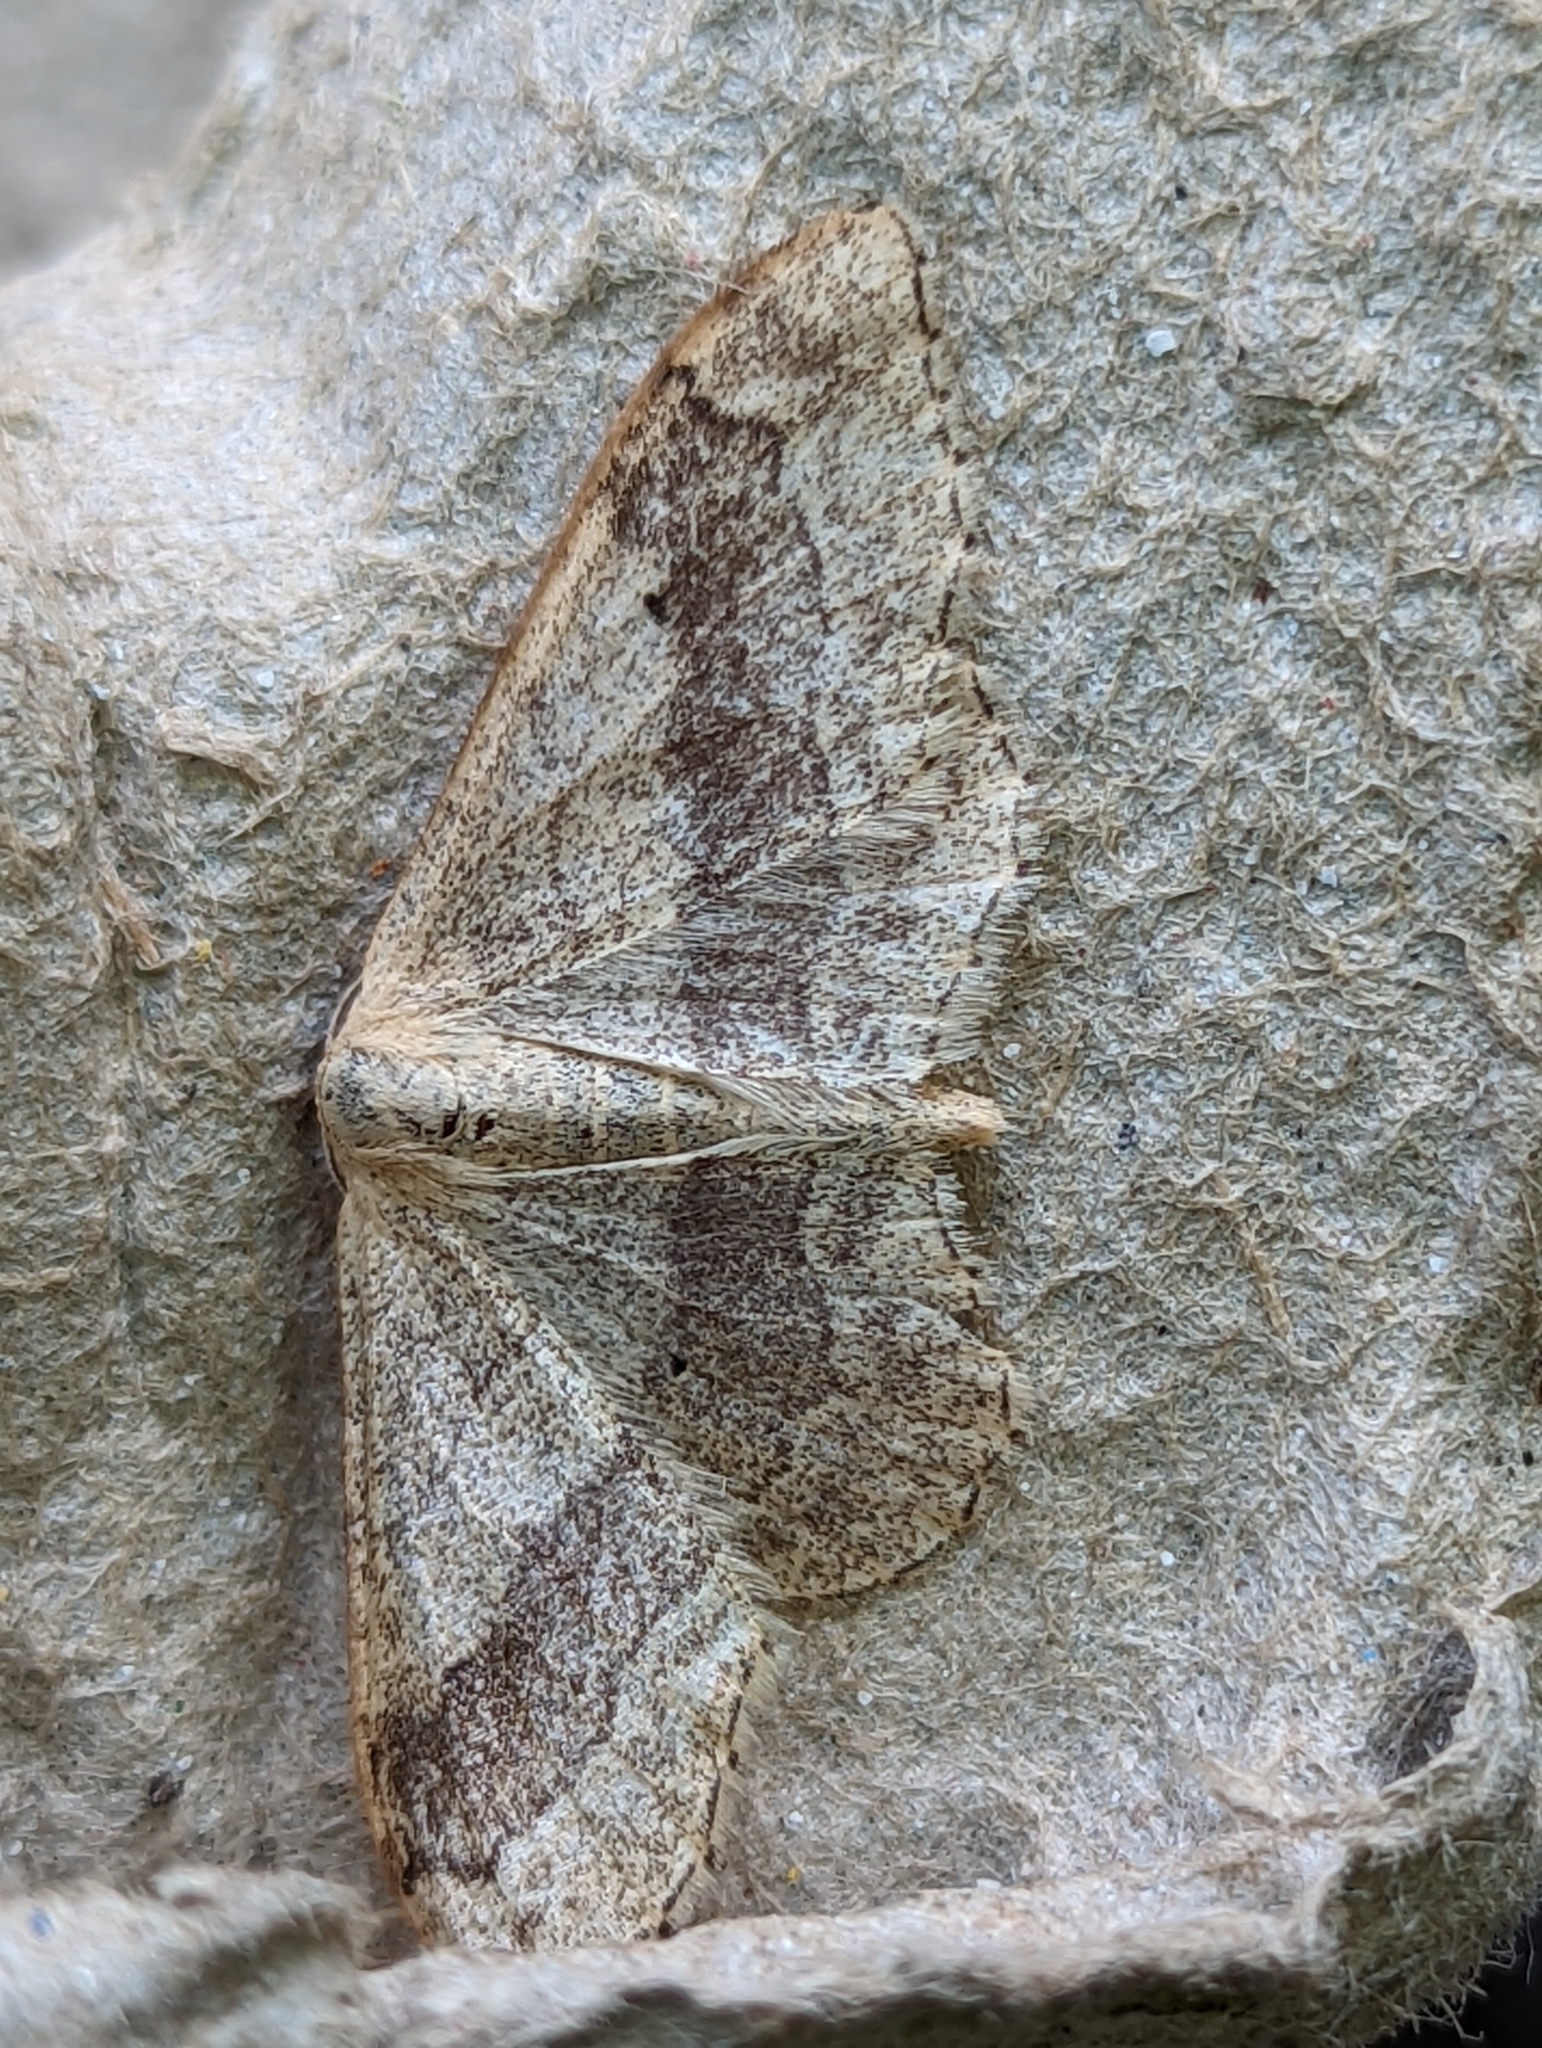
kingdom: Animalia
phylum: Arthropoda
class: Insecta
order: Lepidoptera
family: Geometridae
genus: Idaea
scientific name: Idaea aversata
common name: Riband wave
